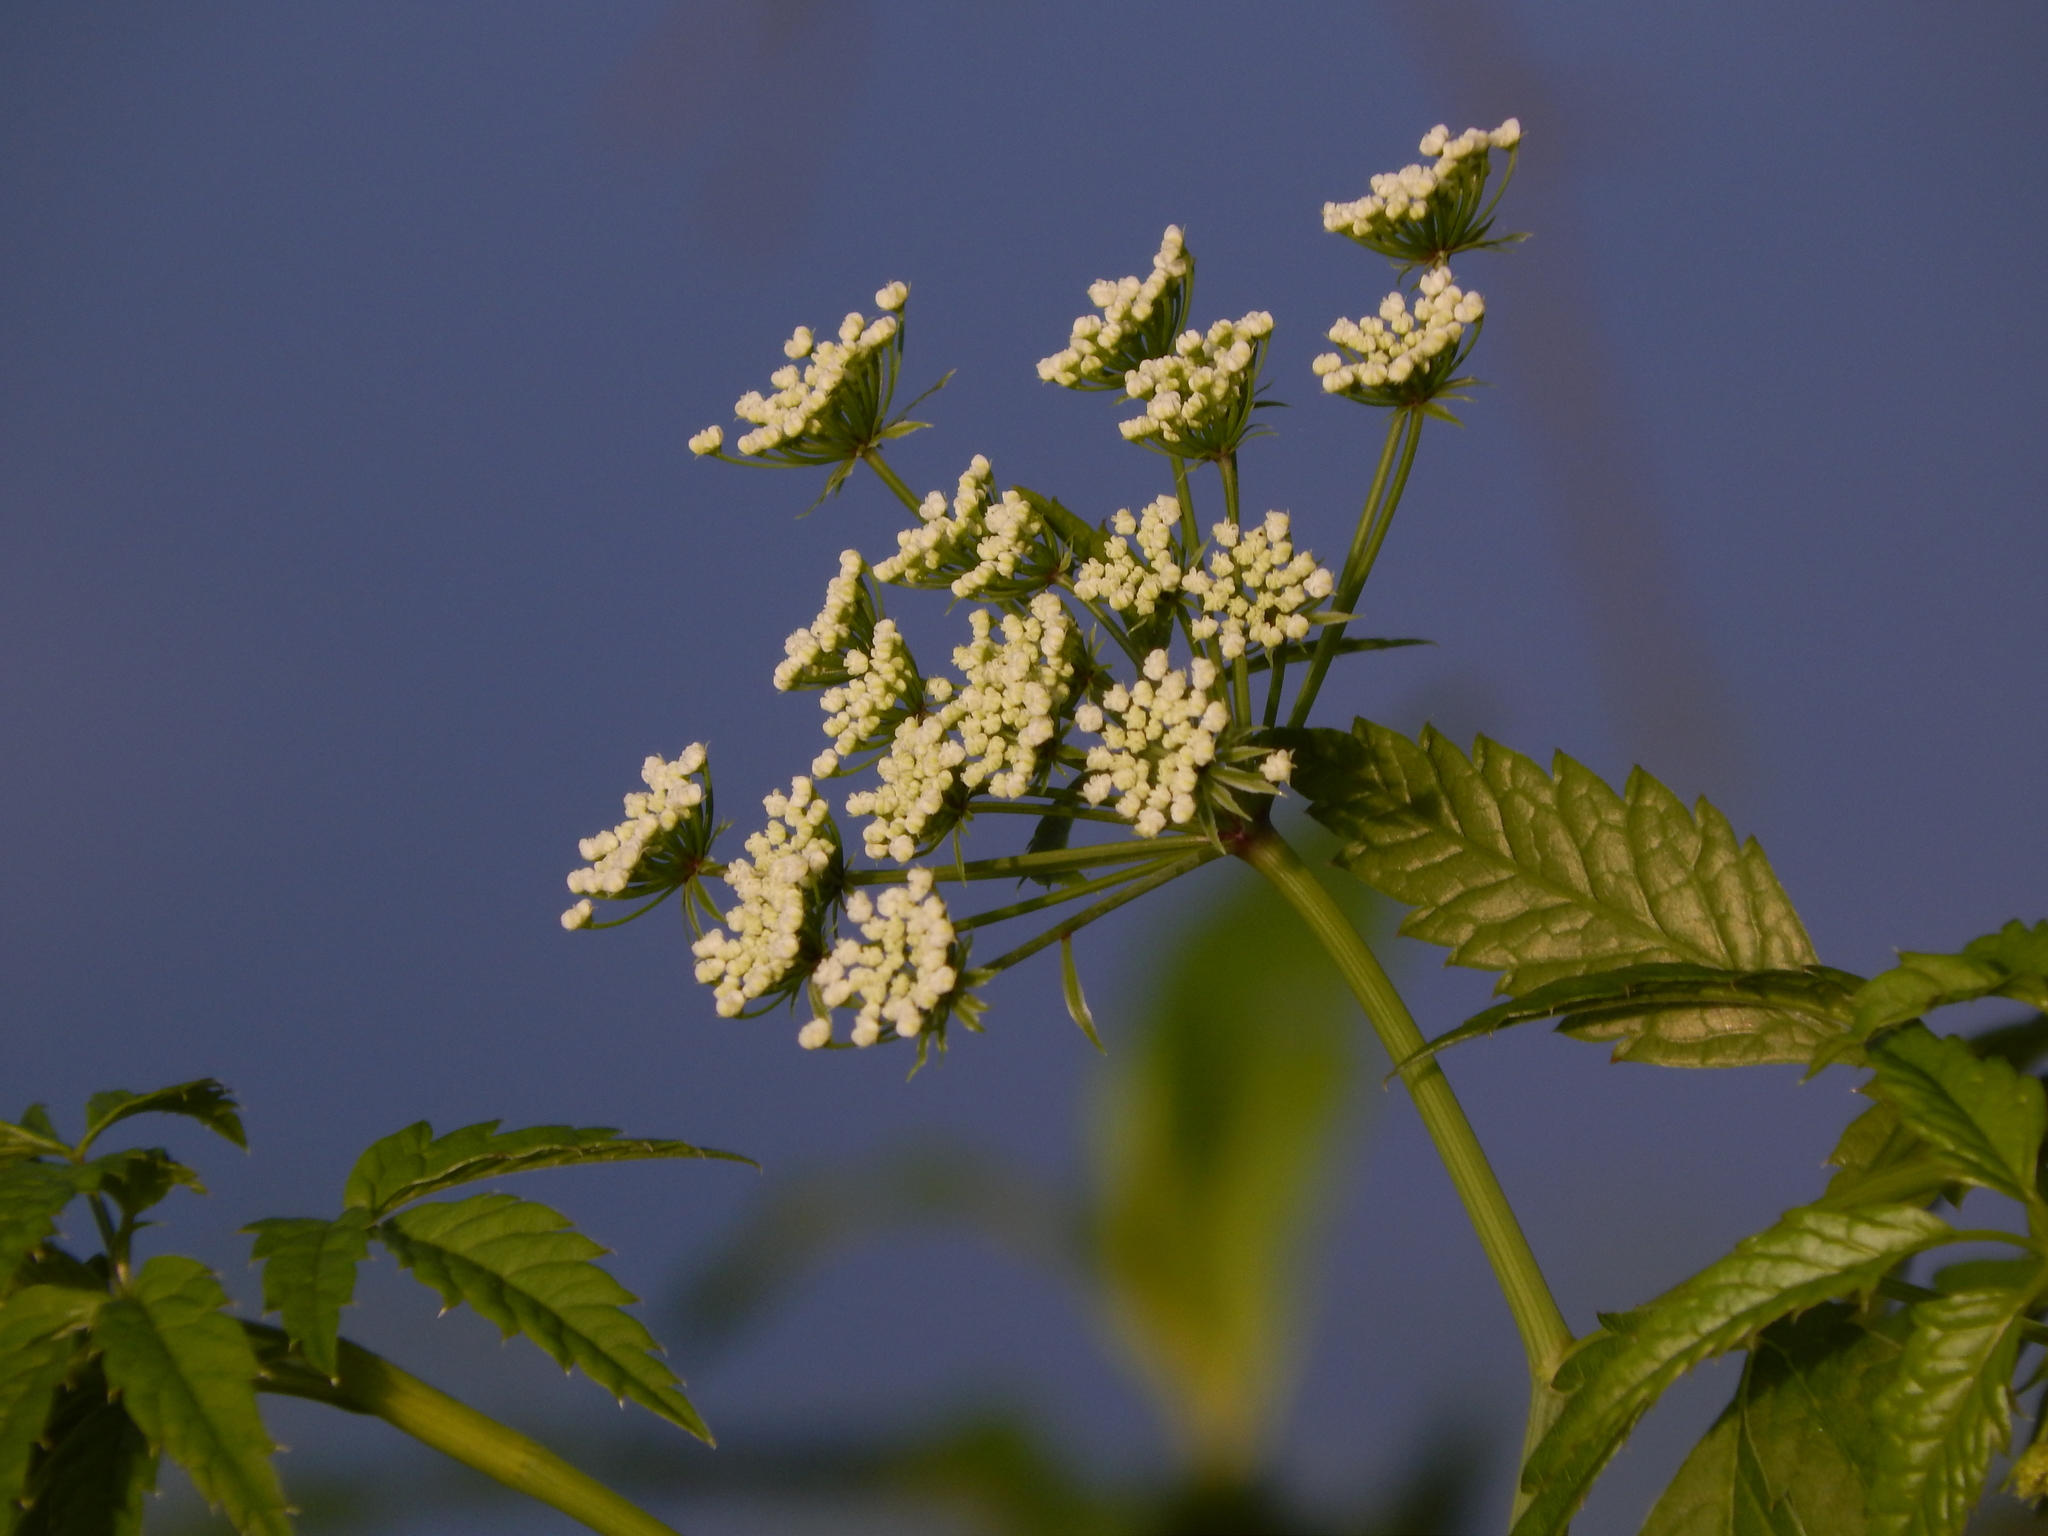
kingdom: Plantae
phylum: Tracheophyta
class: Magnoliopsida
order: Apiales
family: Apiaceae
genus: Cicuta
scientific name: Cicuta maculata
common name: Spotted cowbane
